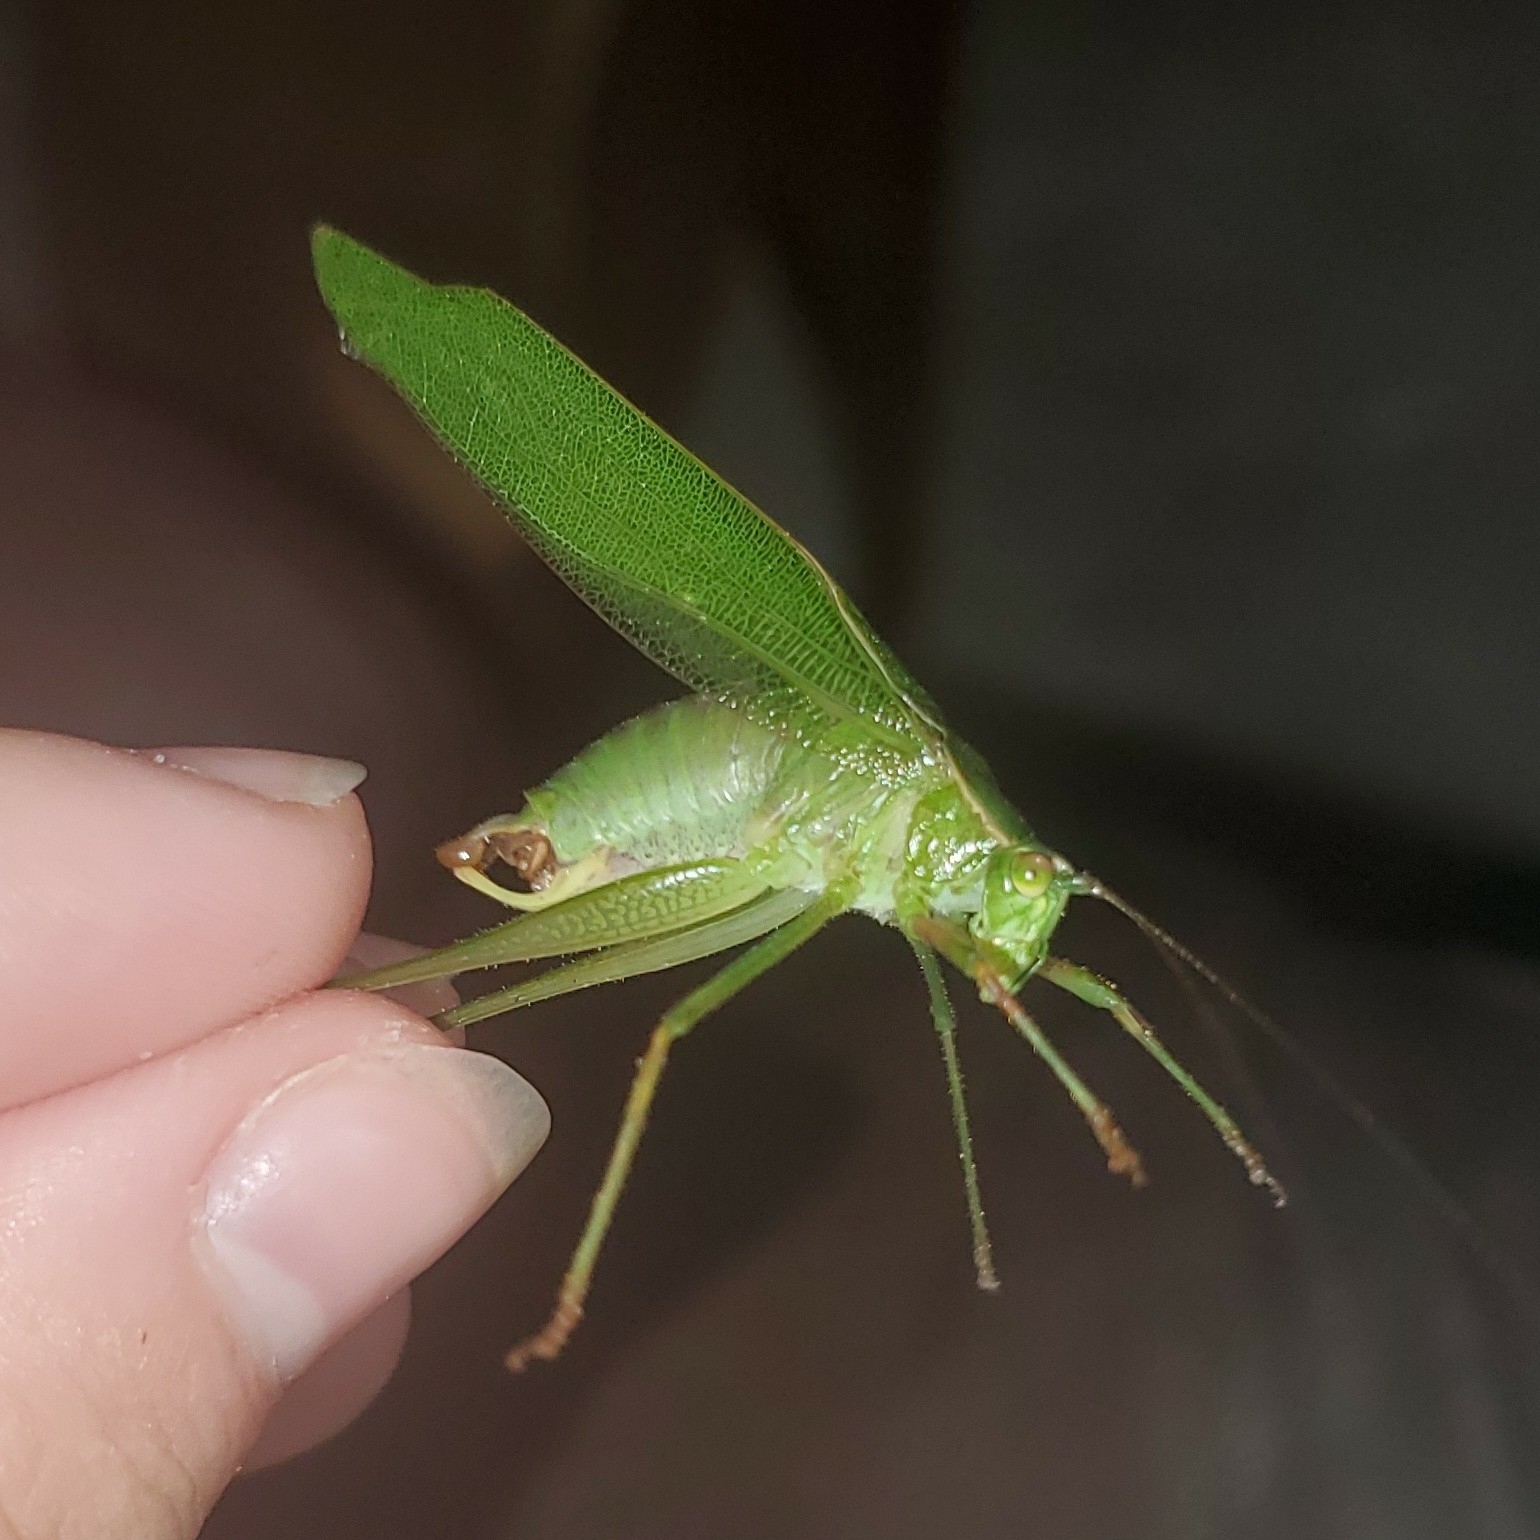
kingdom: Animalia
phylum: Arthropoda
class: Insecta
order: Orthoptera
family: Tettigoniidae
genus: Scudderia
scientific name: Scudderia furcata
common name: Fork-tailed bush katydid
